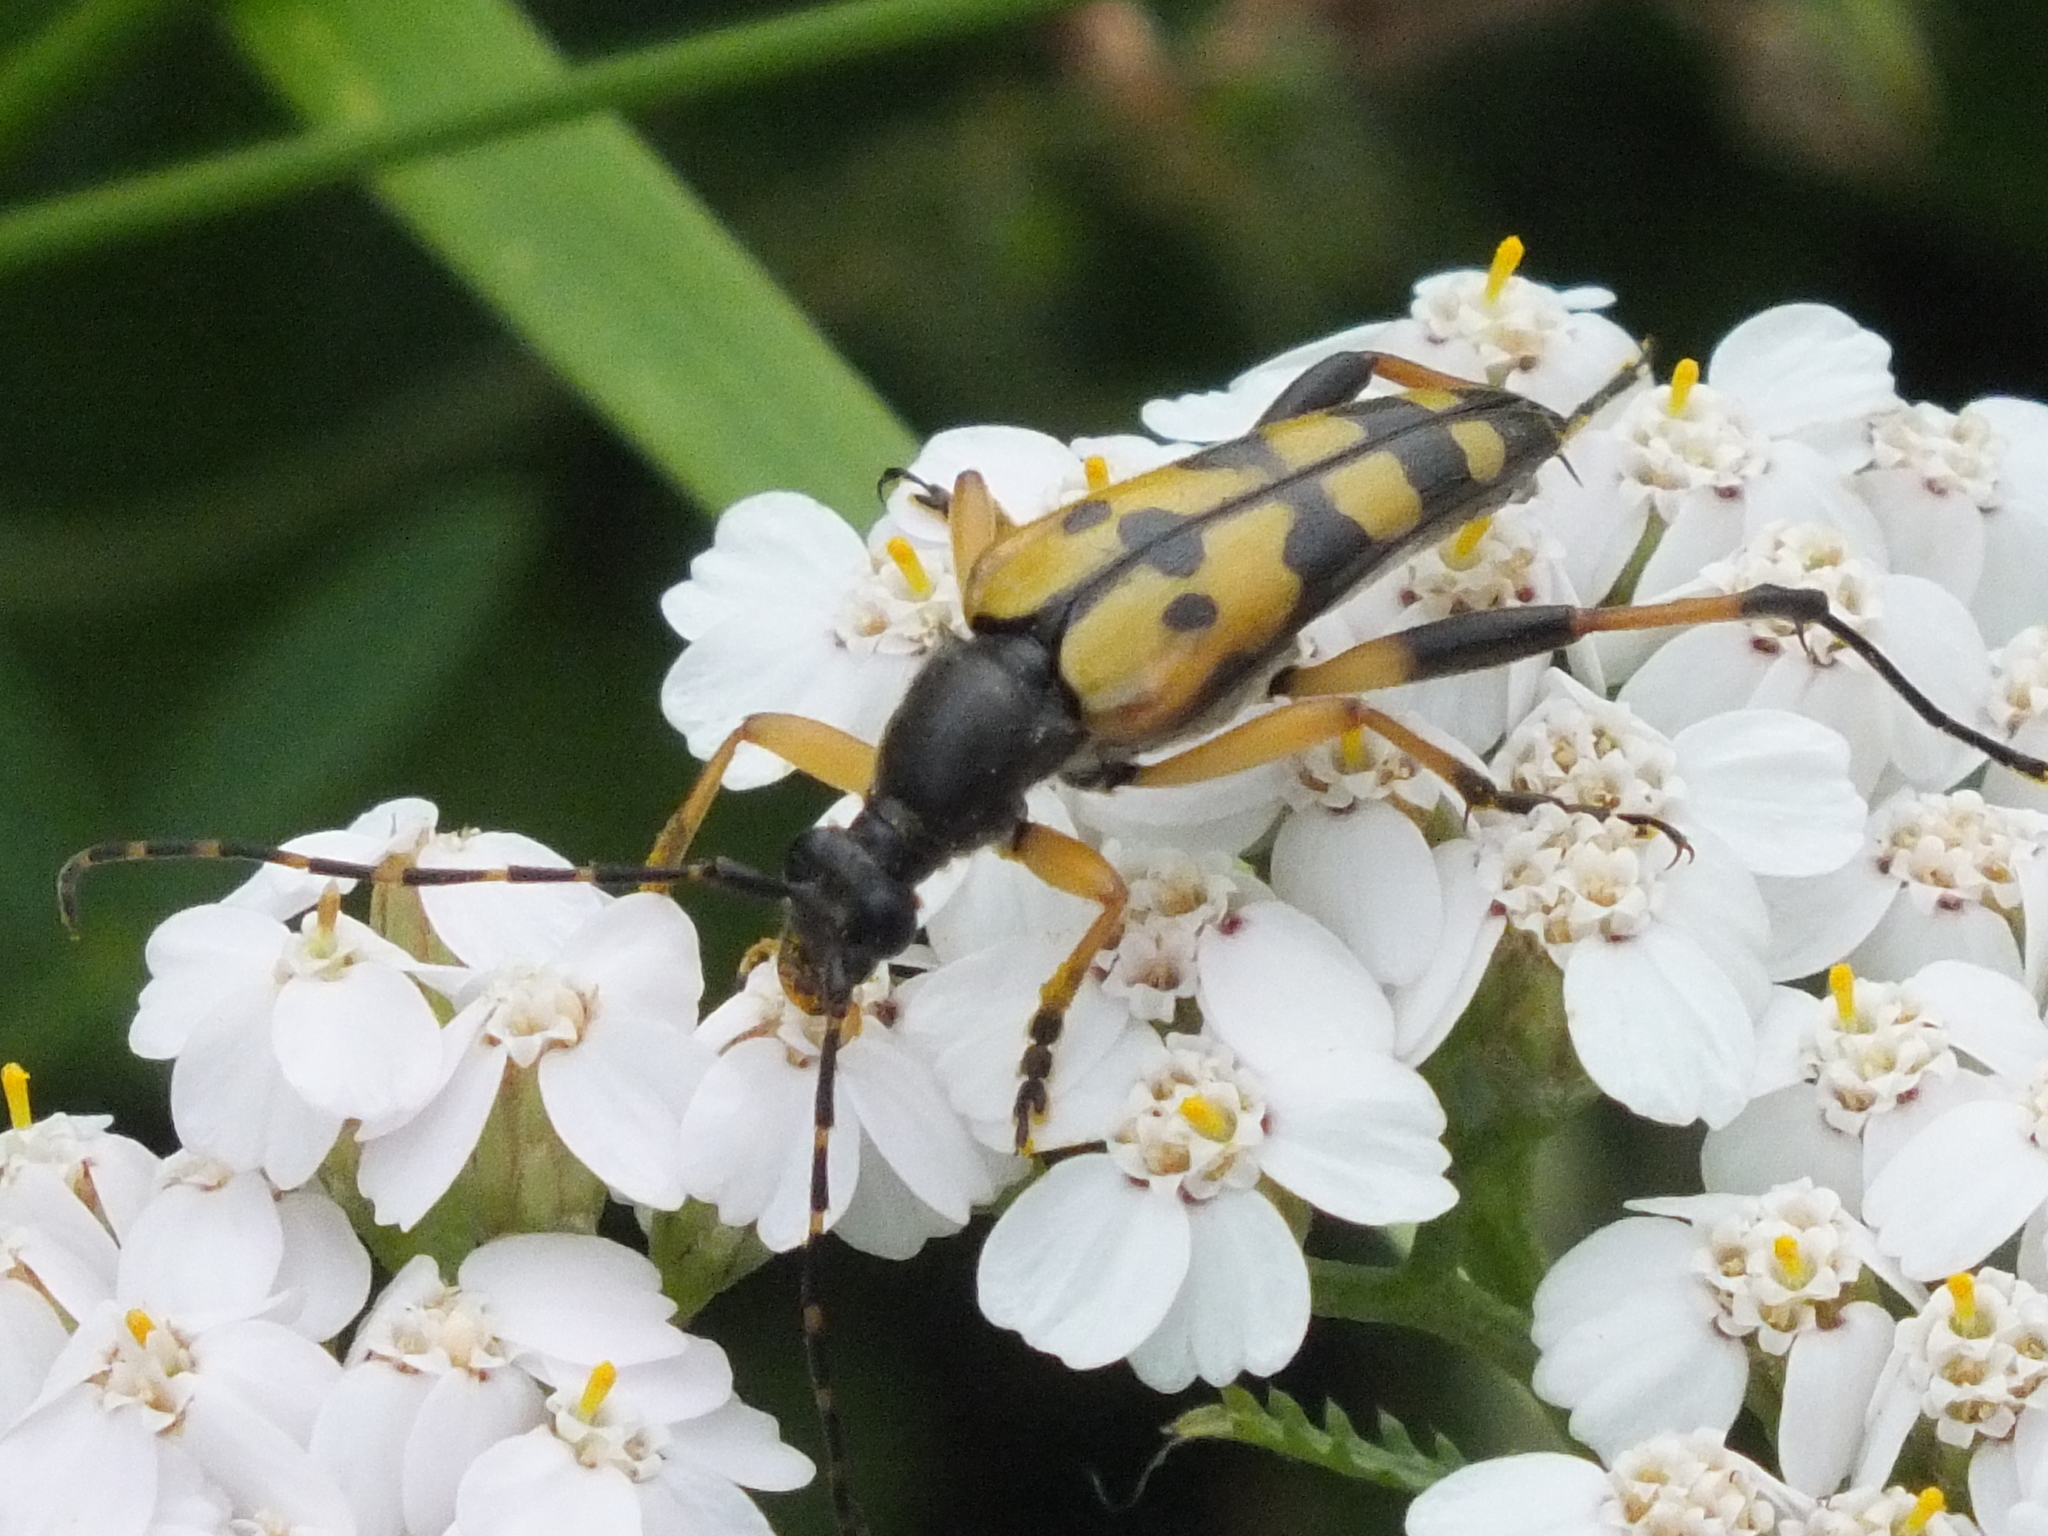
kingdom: Animalia
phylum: Arthropoda
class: Insecta
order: Coleoptera
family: Cerambycidae
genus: Rutpela
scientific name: Rutpela maculata
